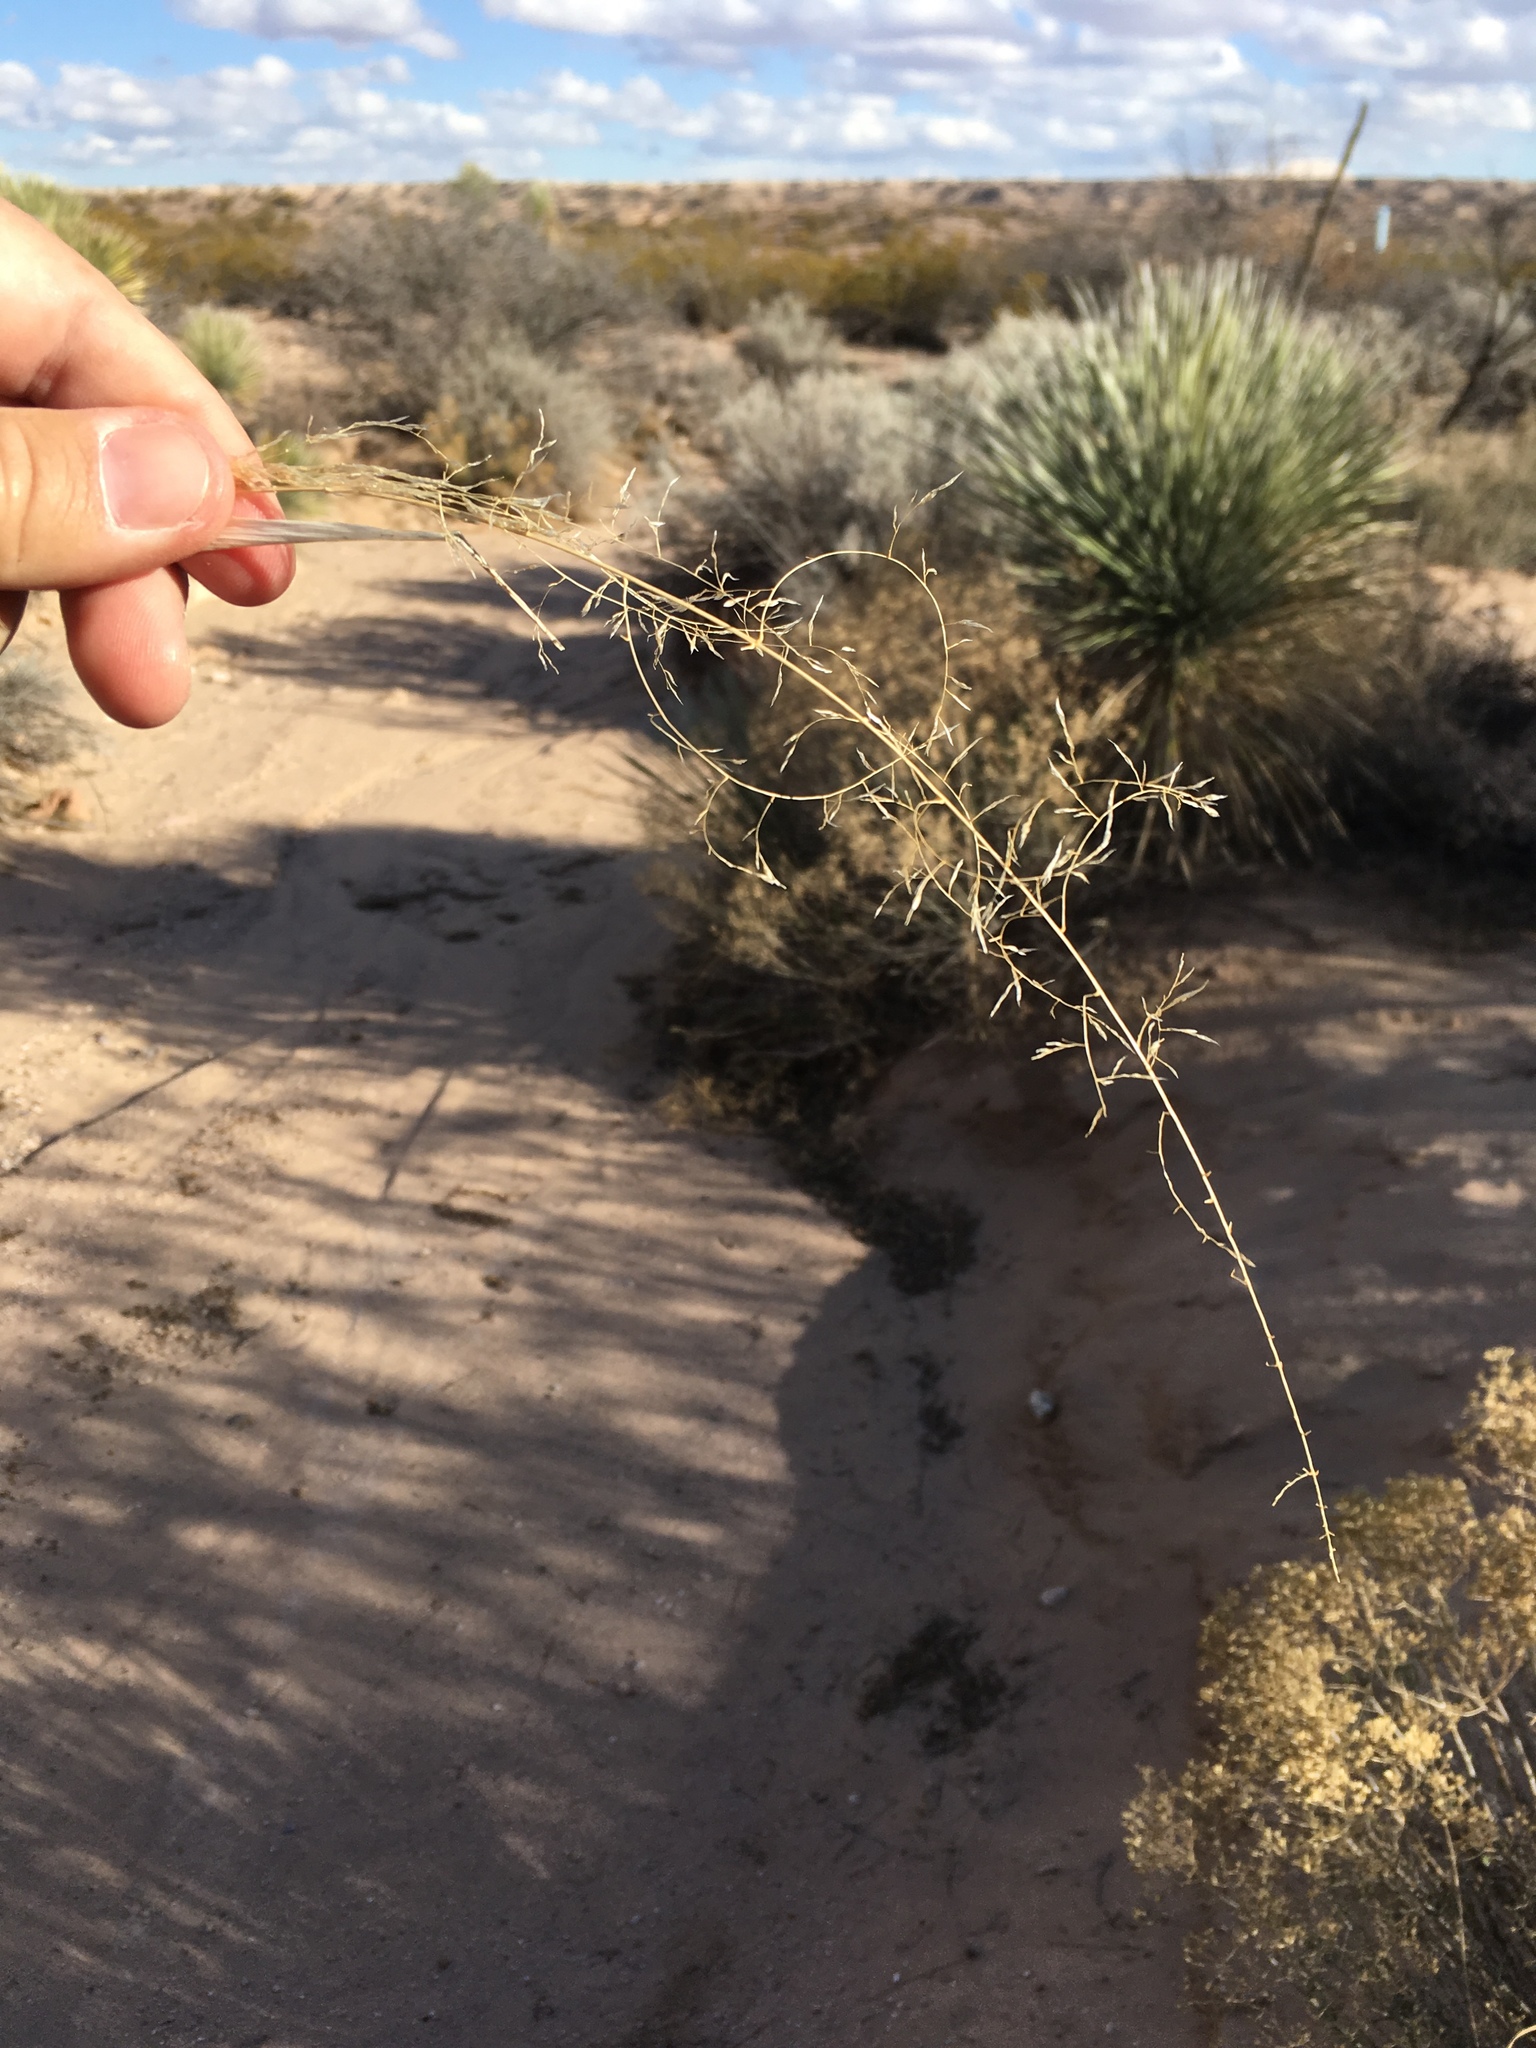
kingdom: Plantae
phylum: Tracheophyta
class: Liliopsida
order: Poales
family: Poaceae
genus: Sporobolus
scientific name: Sporobolus flexuosus
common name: Mesa dropseed
